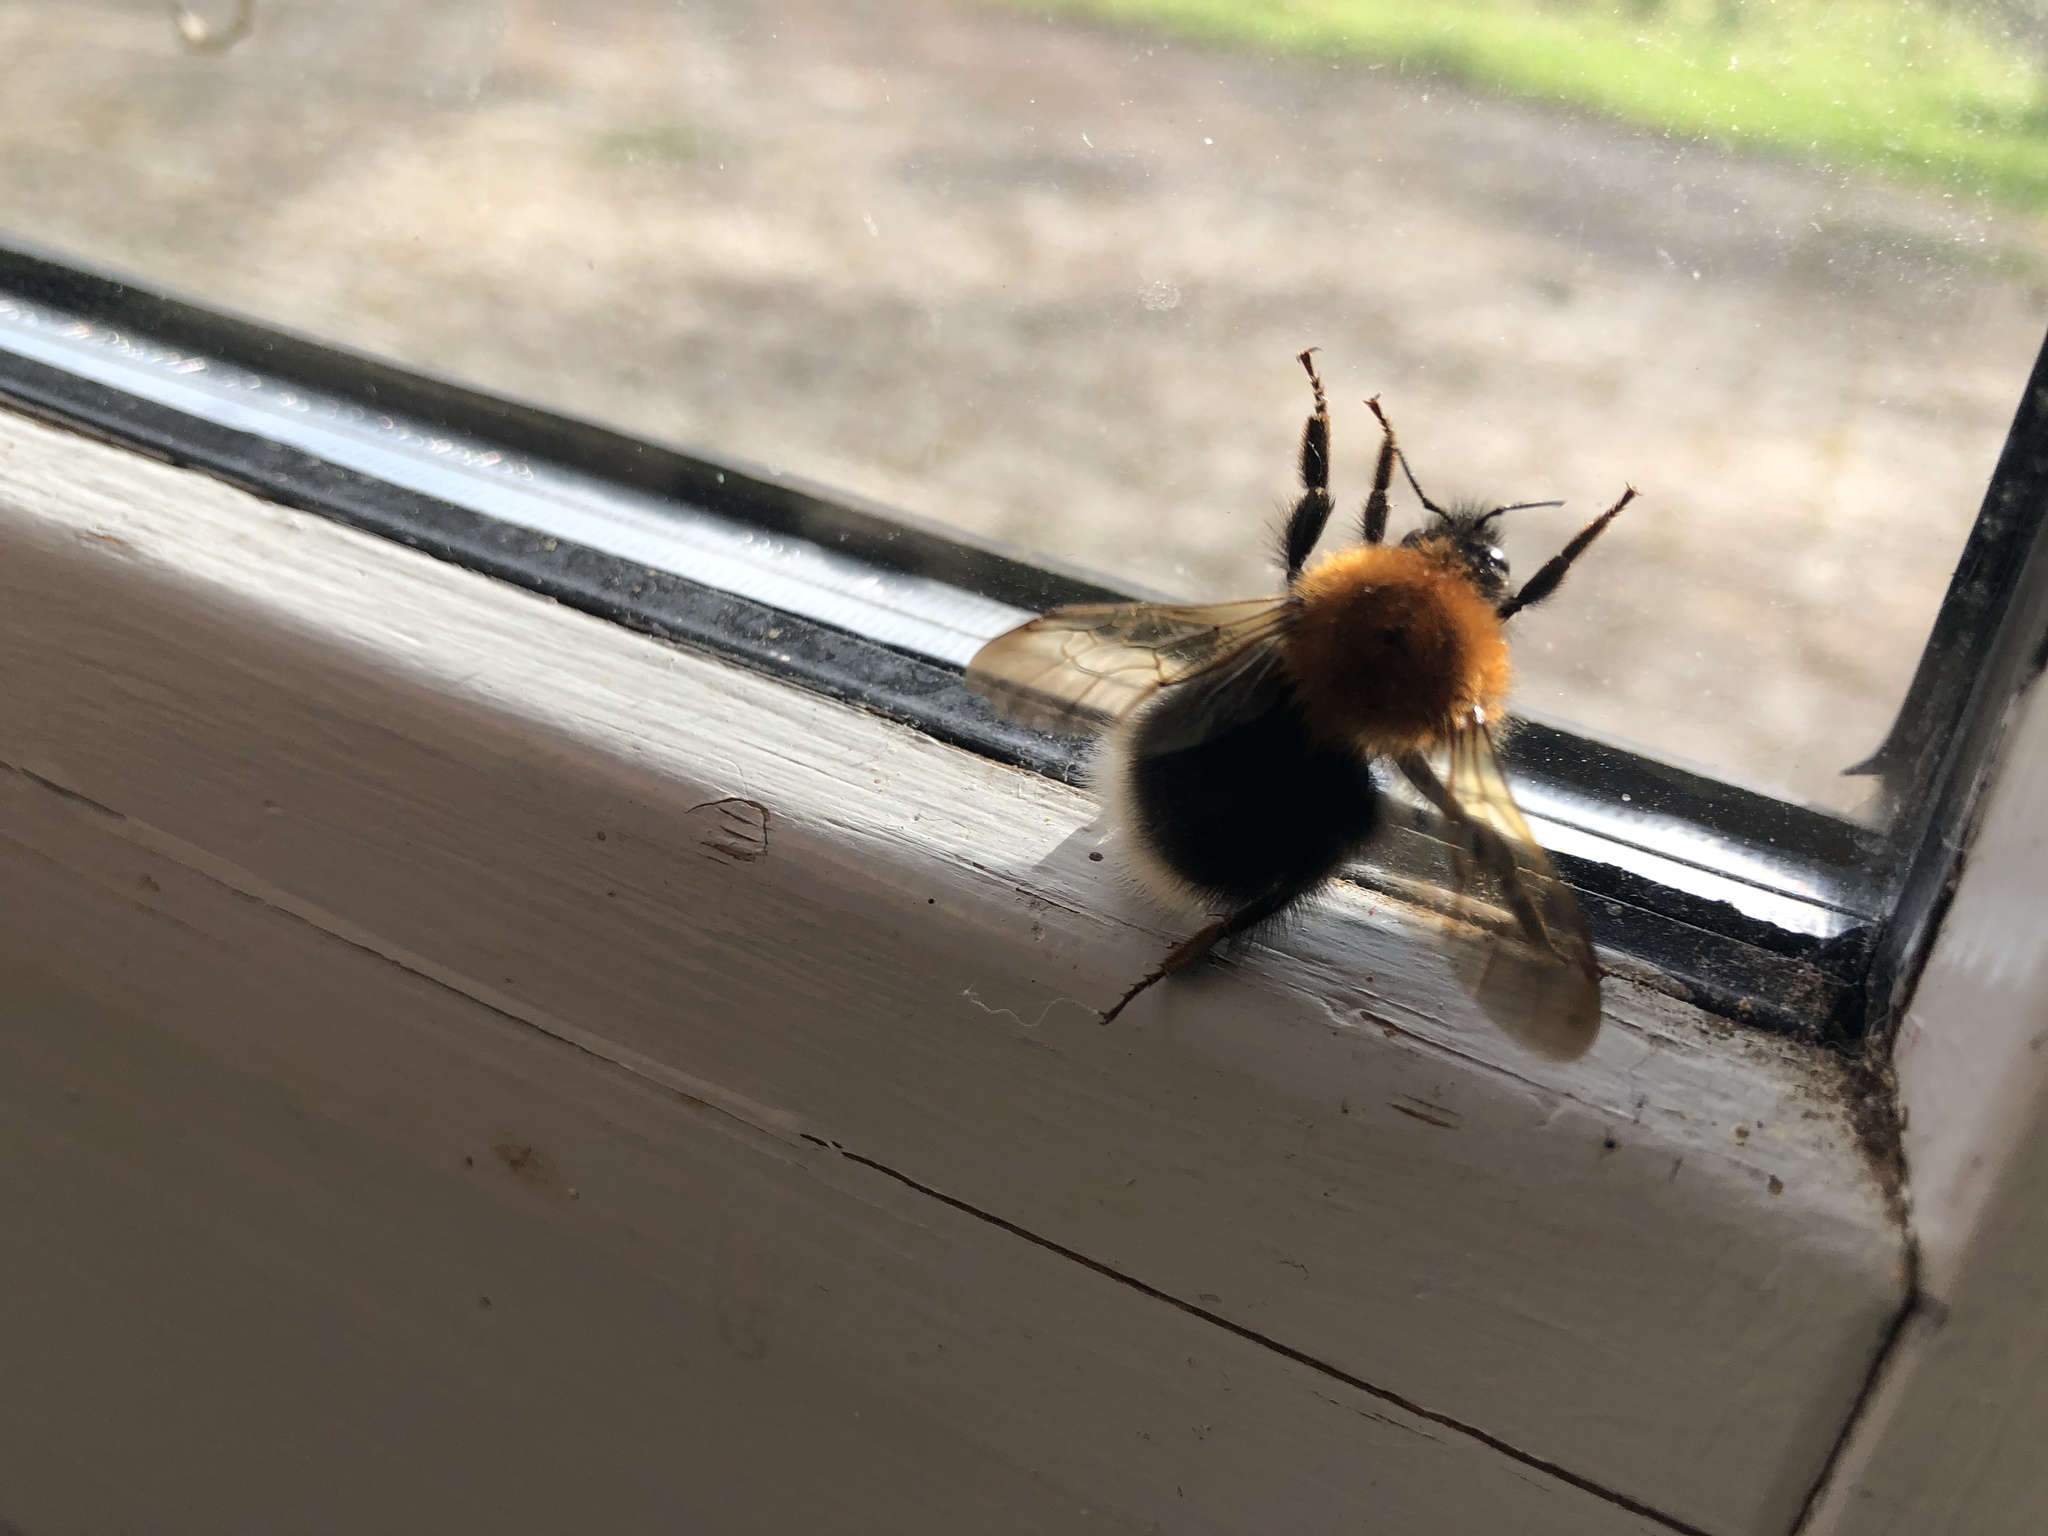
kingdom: Animalia
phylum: Arthropoda
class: Insecta
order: Hymenoptera
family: Apidae
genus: Bombus
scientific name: Bombus hypnorum
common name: New garden bumblebee
